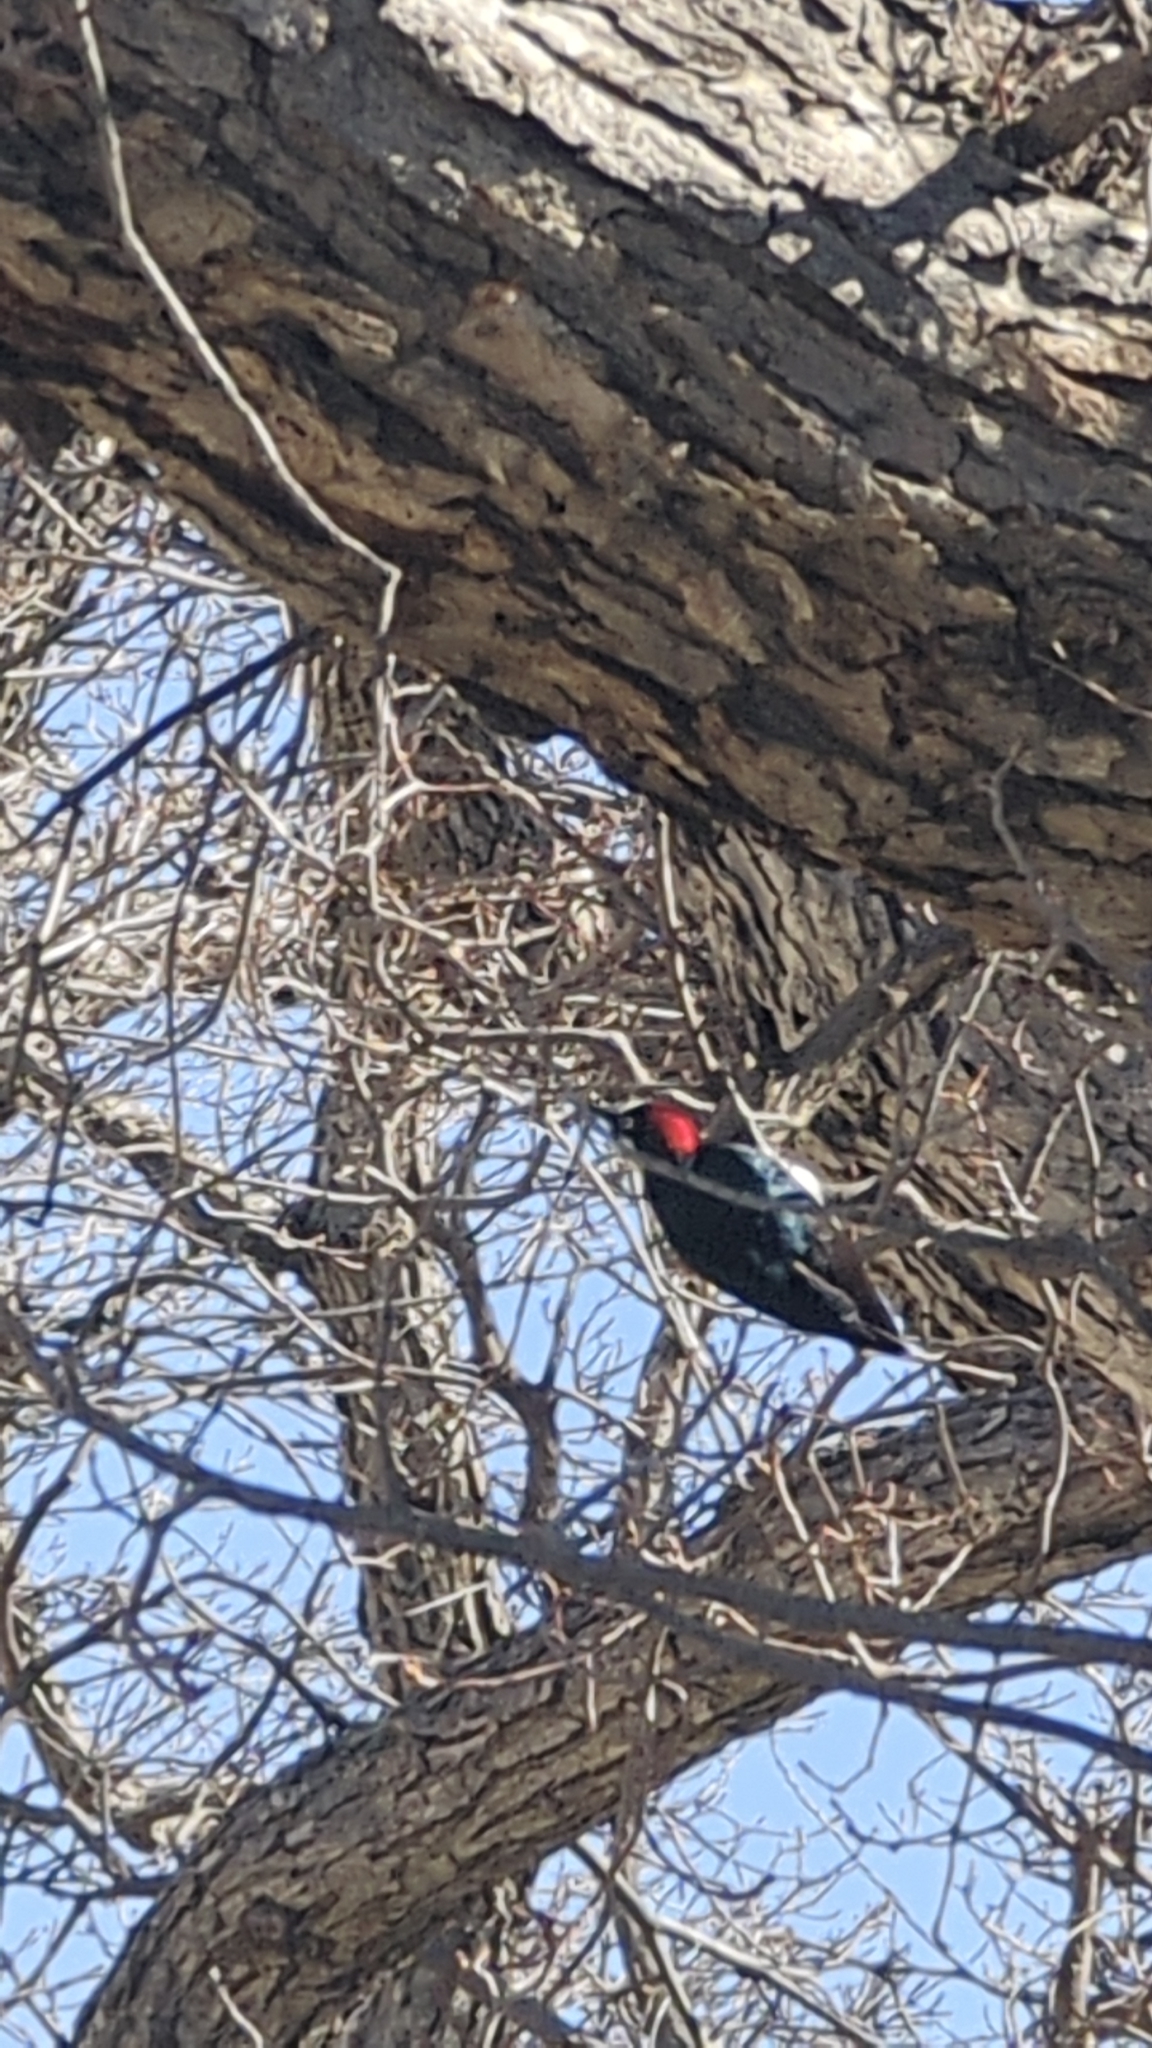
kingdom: Animalia
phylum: Chordata
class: Aves
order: Piciformes
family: Picidae
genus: Melanerpes
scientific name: Melanerpes formicivorus
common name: Acorn woodpecker
